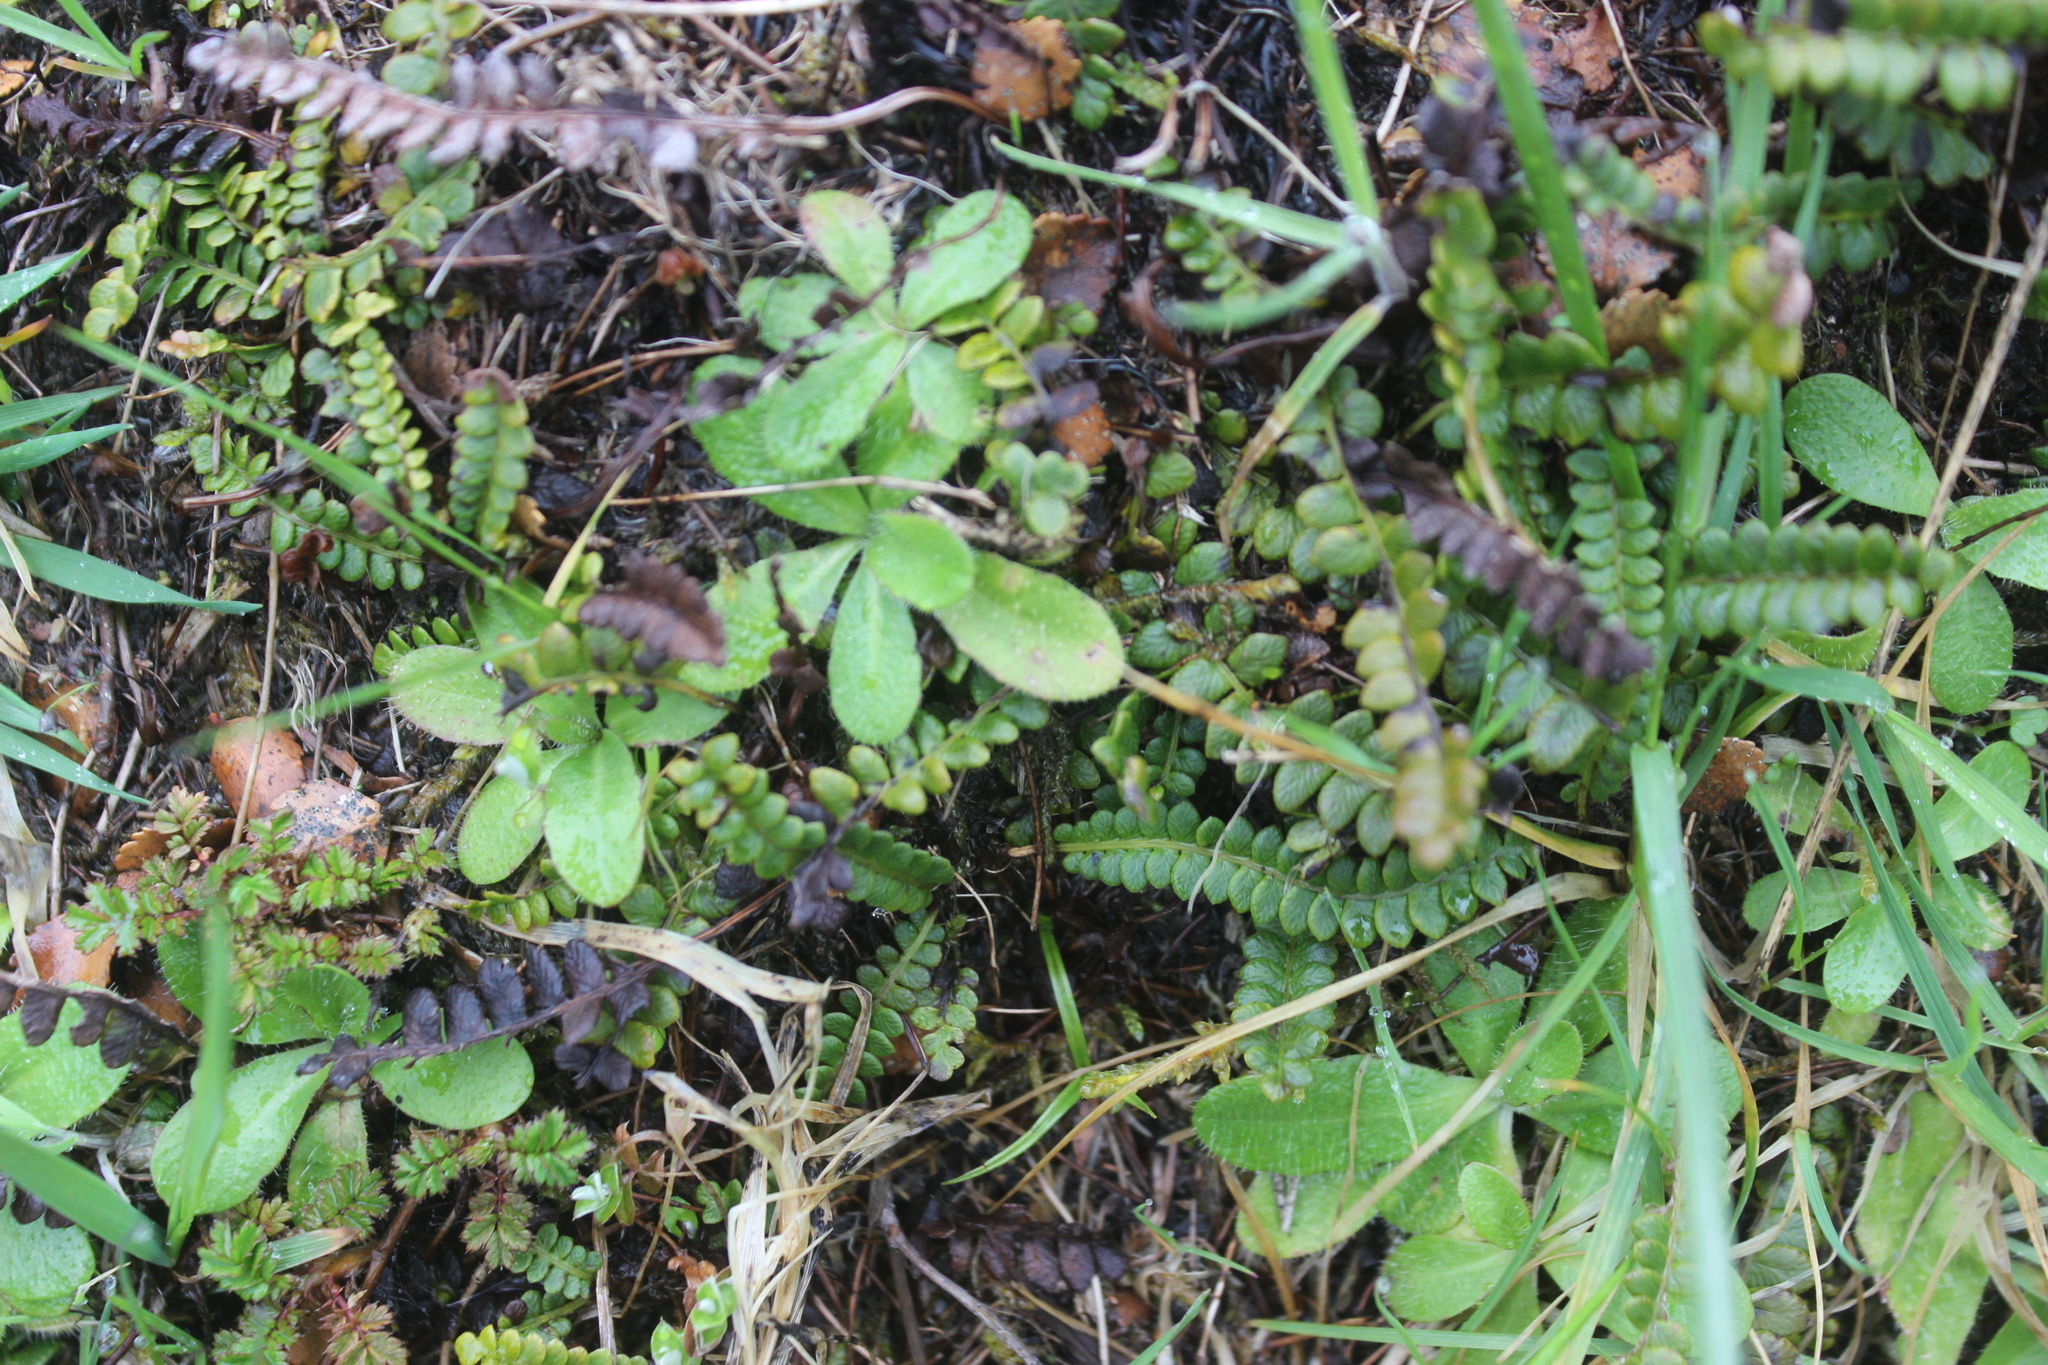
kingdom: Plantae
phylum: Tracheophyta
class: Polypodiopsida
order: Polypodiales
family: Blechnaceae
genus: Austroblechnum
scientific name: Austroblechnum penna-marina
